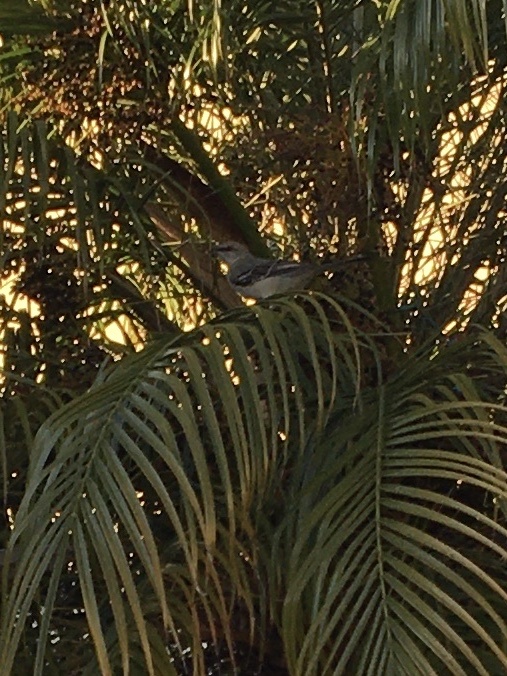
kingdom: Animalia
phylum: Chordata
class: Aves
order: Passeriformes
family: Mimidae
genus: Mimus
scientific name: Mimus polyglottos
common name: Northern mockingbird
